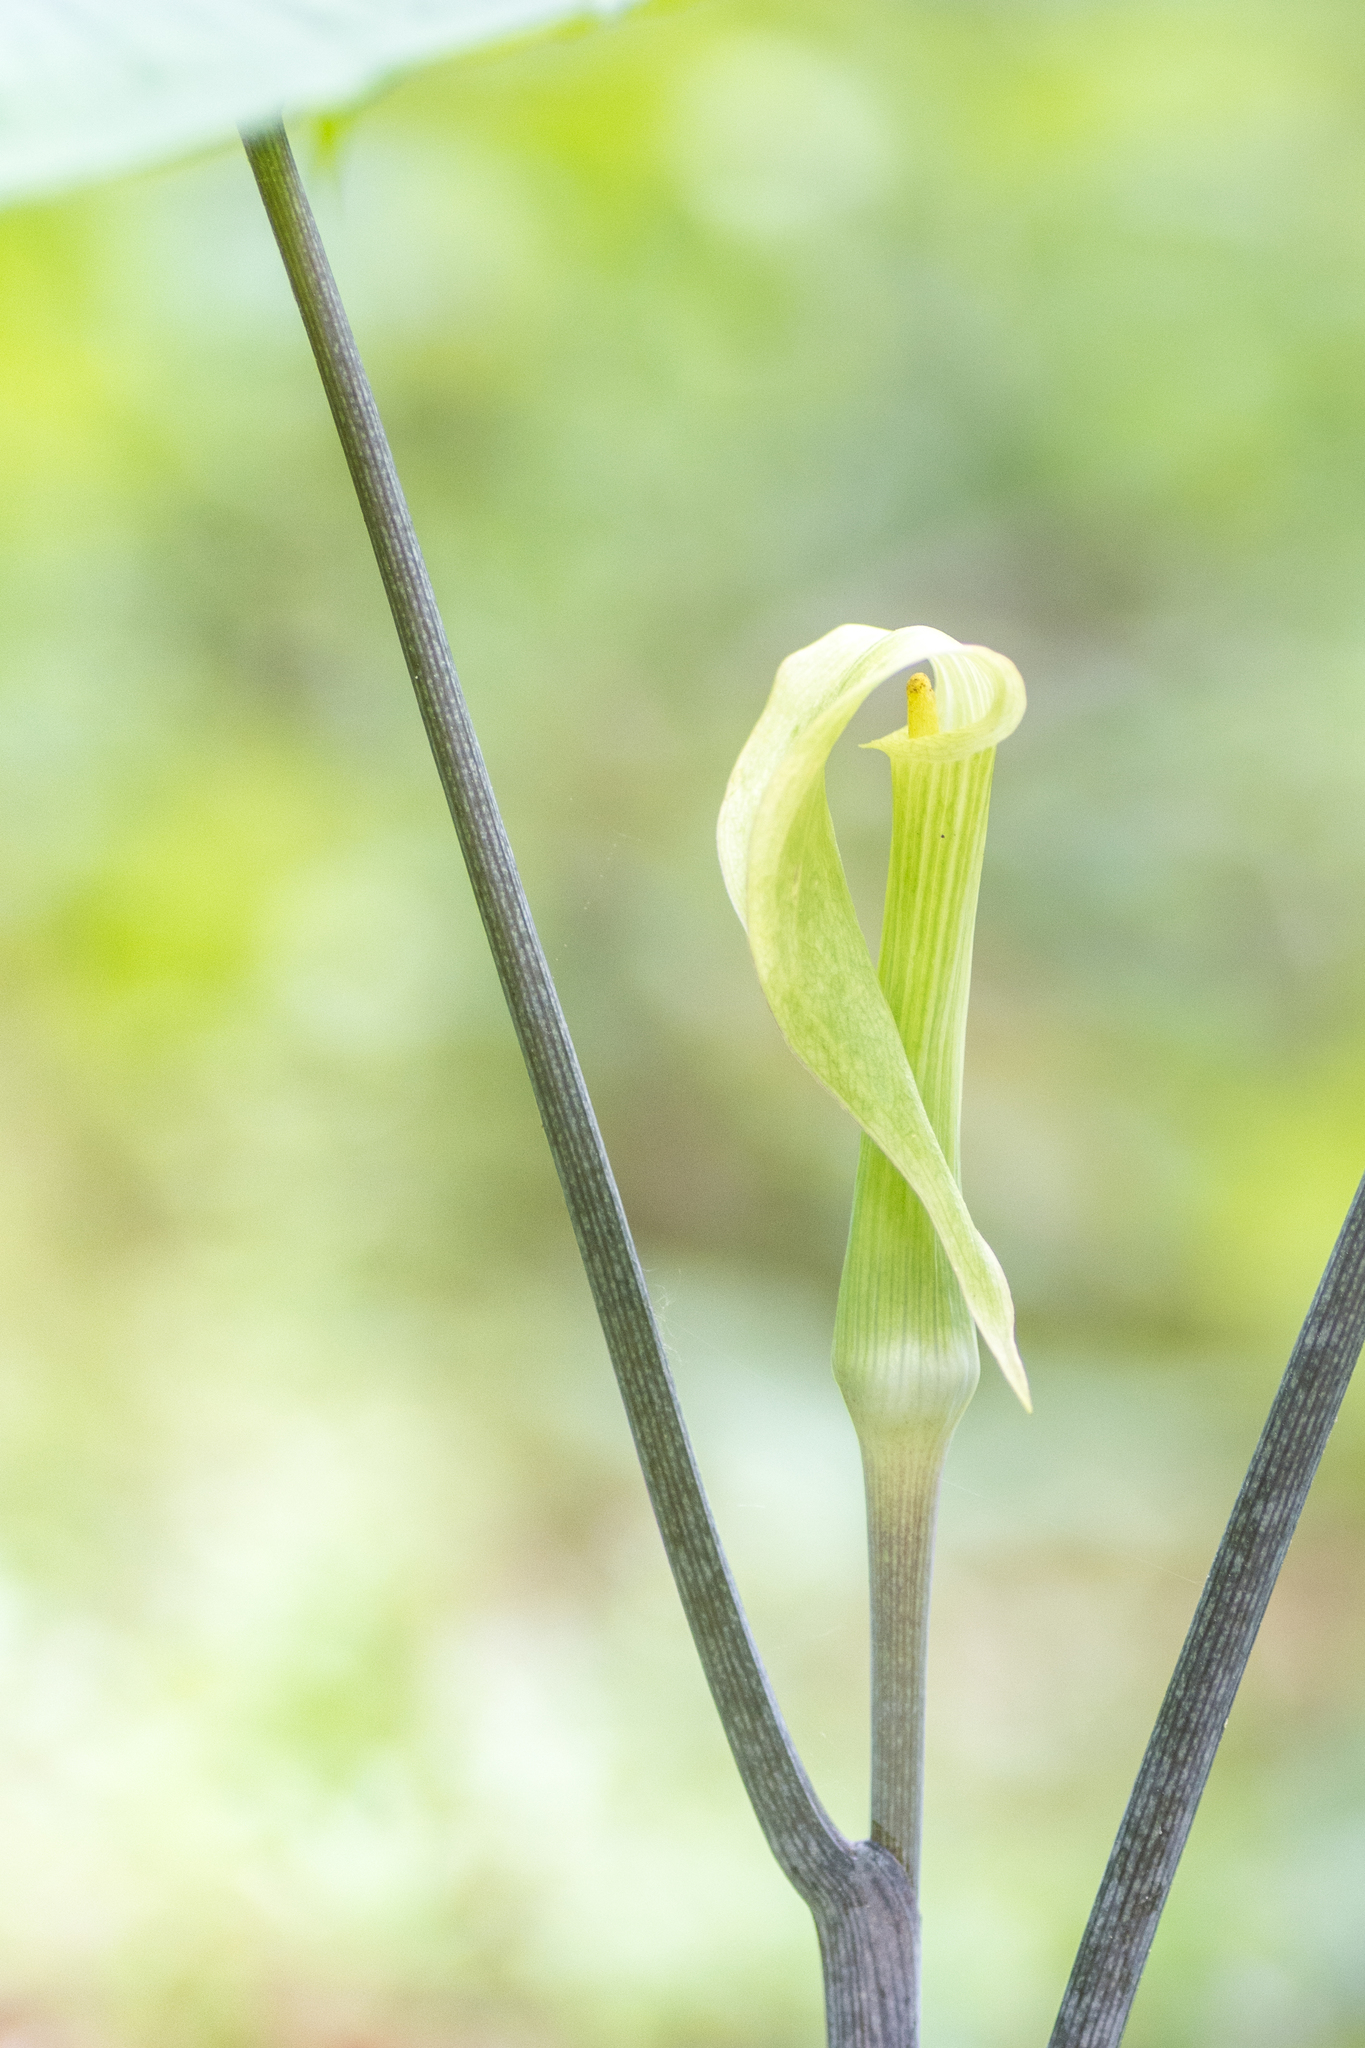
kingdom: Plantae
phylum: Tracheophyta
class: Liliopsida
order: Alismatales
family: Araceae
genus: Arisaema
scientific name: Arisaema acuminatum
